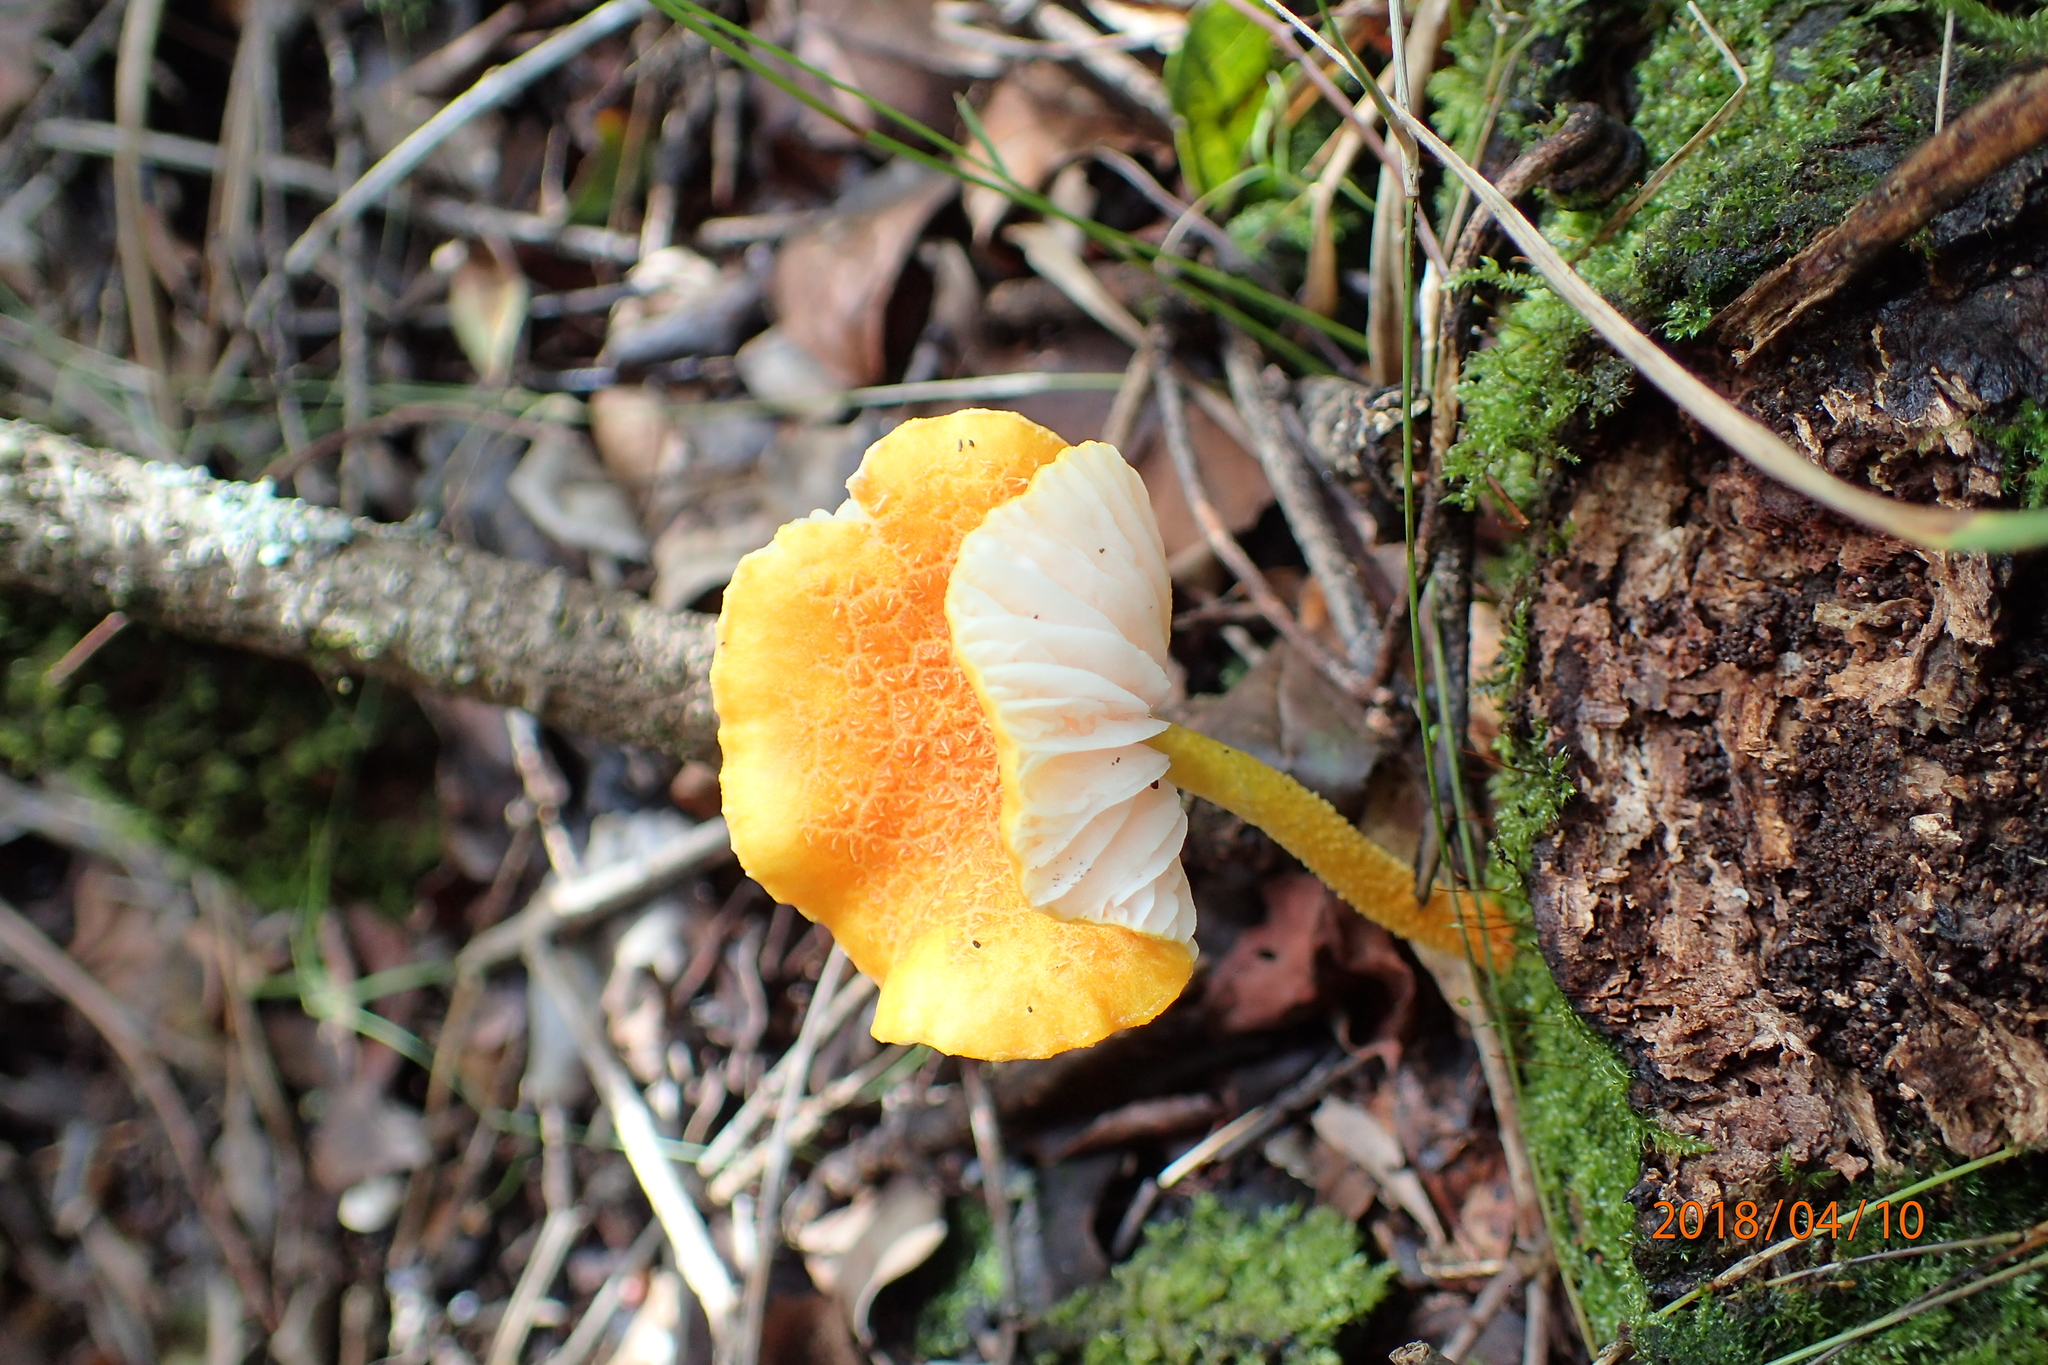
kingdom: Fungi
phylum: Basidiomycota
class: Agaricomycetes
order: Agaricales
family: Physalacriaceae
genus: Cyptotrama
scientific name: Cyptotrama asprata
